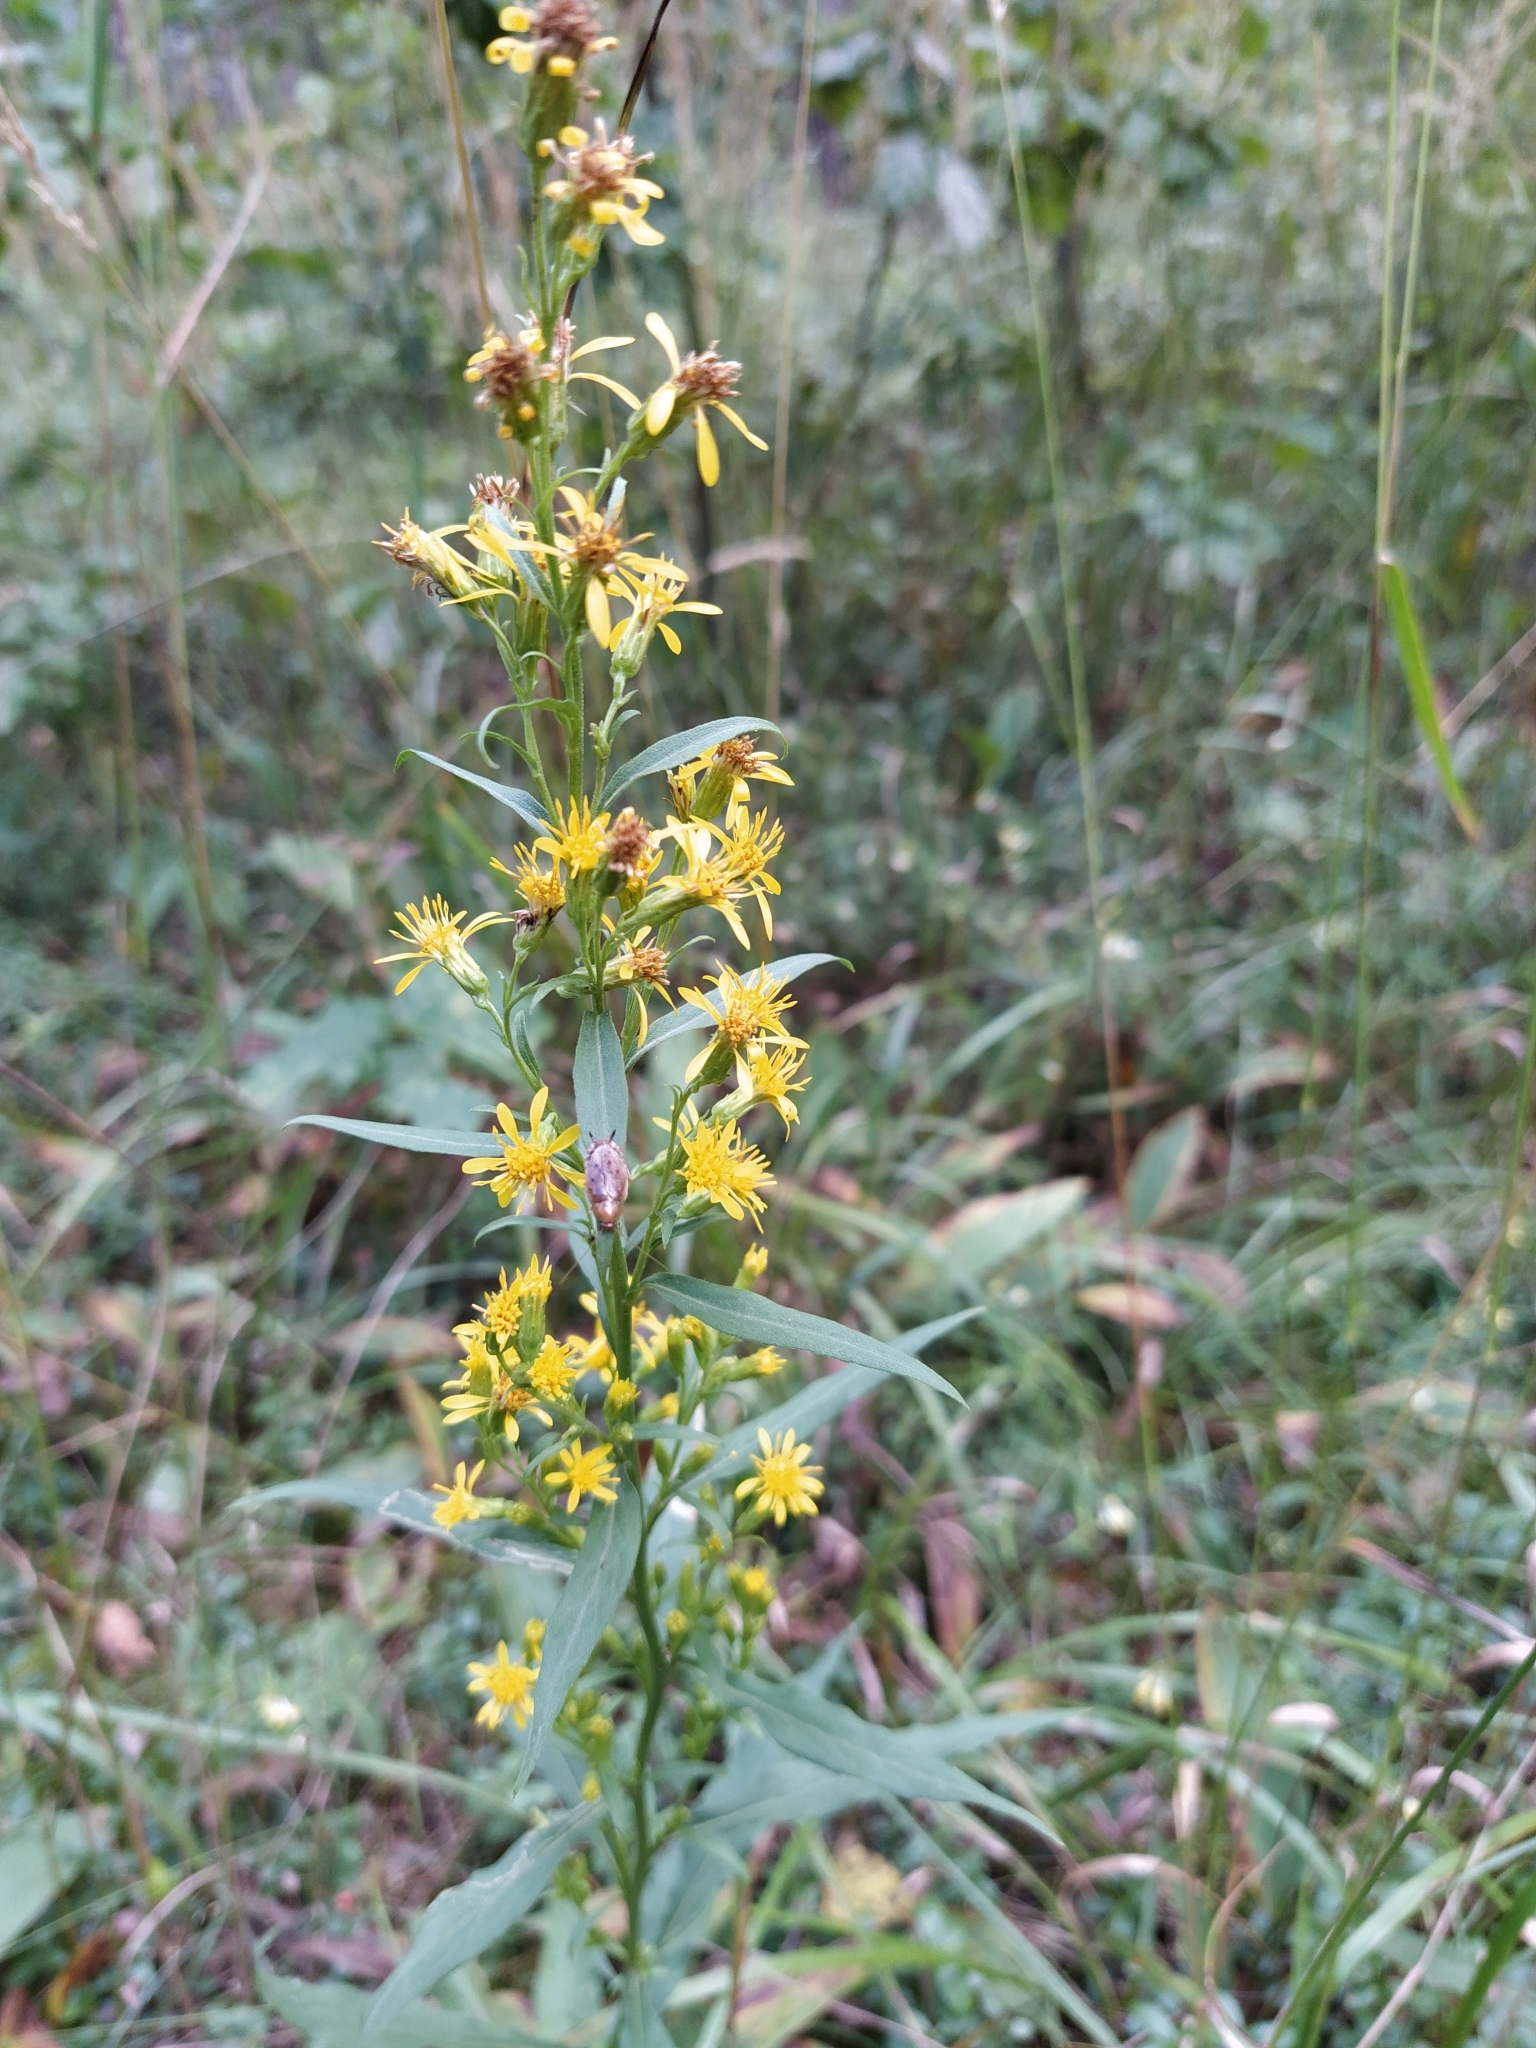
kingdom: Plantae
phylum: Tracheophyta
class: Magnoliopsida
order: Asterales
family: Asteraceae
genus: Solidago
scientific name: Solidago virgaurea
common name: Goldenrod
